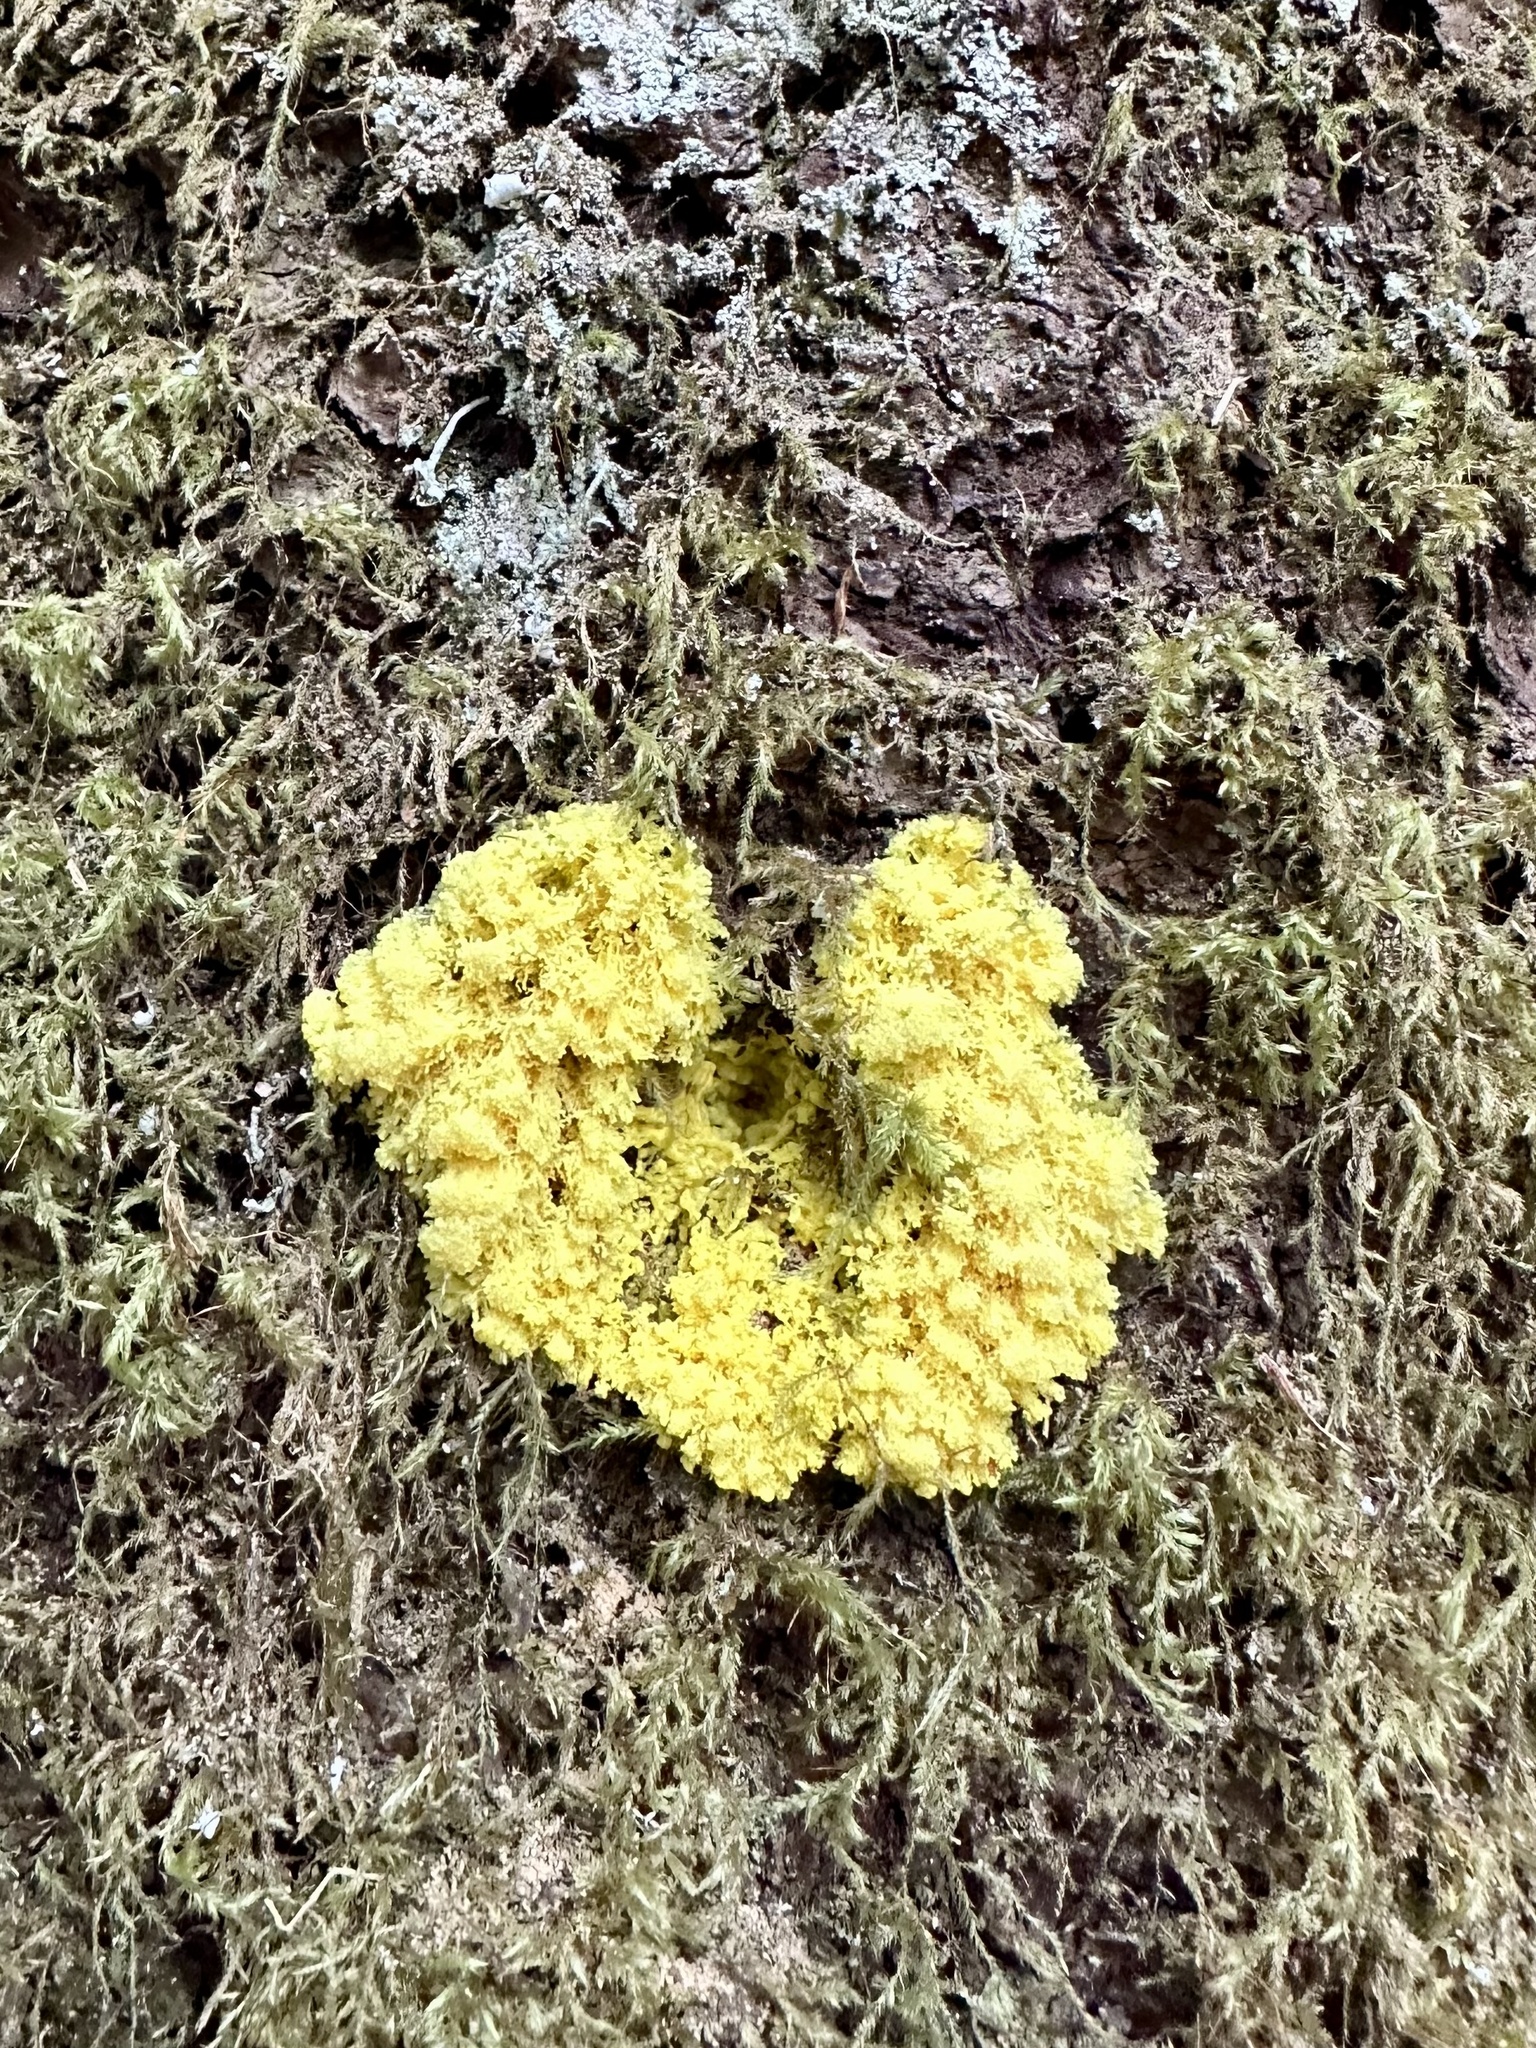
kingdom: Protozoa
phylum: Mycetozoa
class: Myxomycetes
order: Physarales
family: Physaraceae
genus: Fuligo
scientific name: Fuligo septica
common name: Dog vomit slime mold
